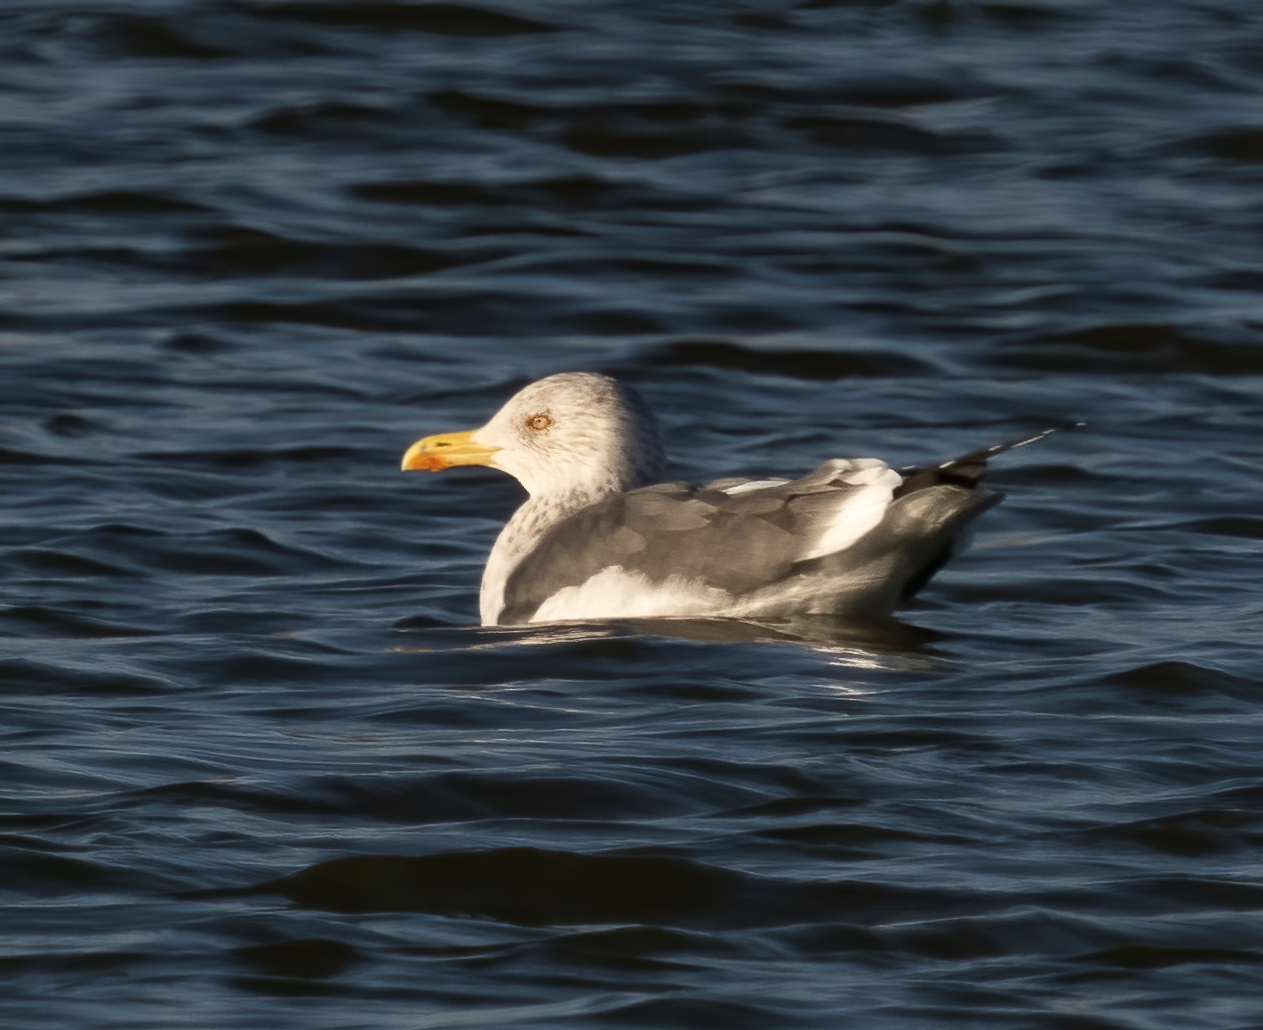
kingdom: Animalia
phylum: Chordata
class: Aves
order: Charadriiformes
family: Laridae
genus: Larus
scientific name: Larus fuscus
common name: Lesser black-backed gull
